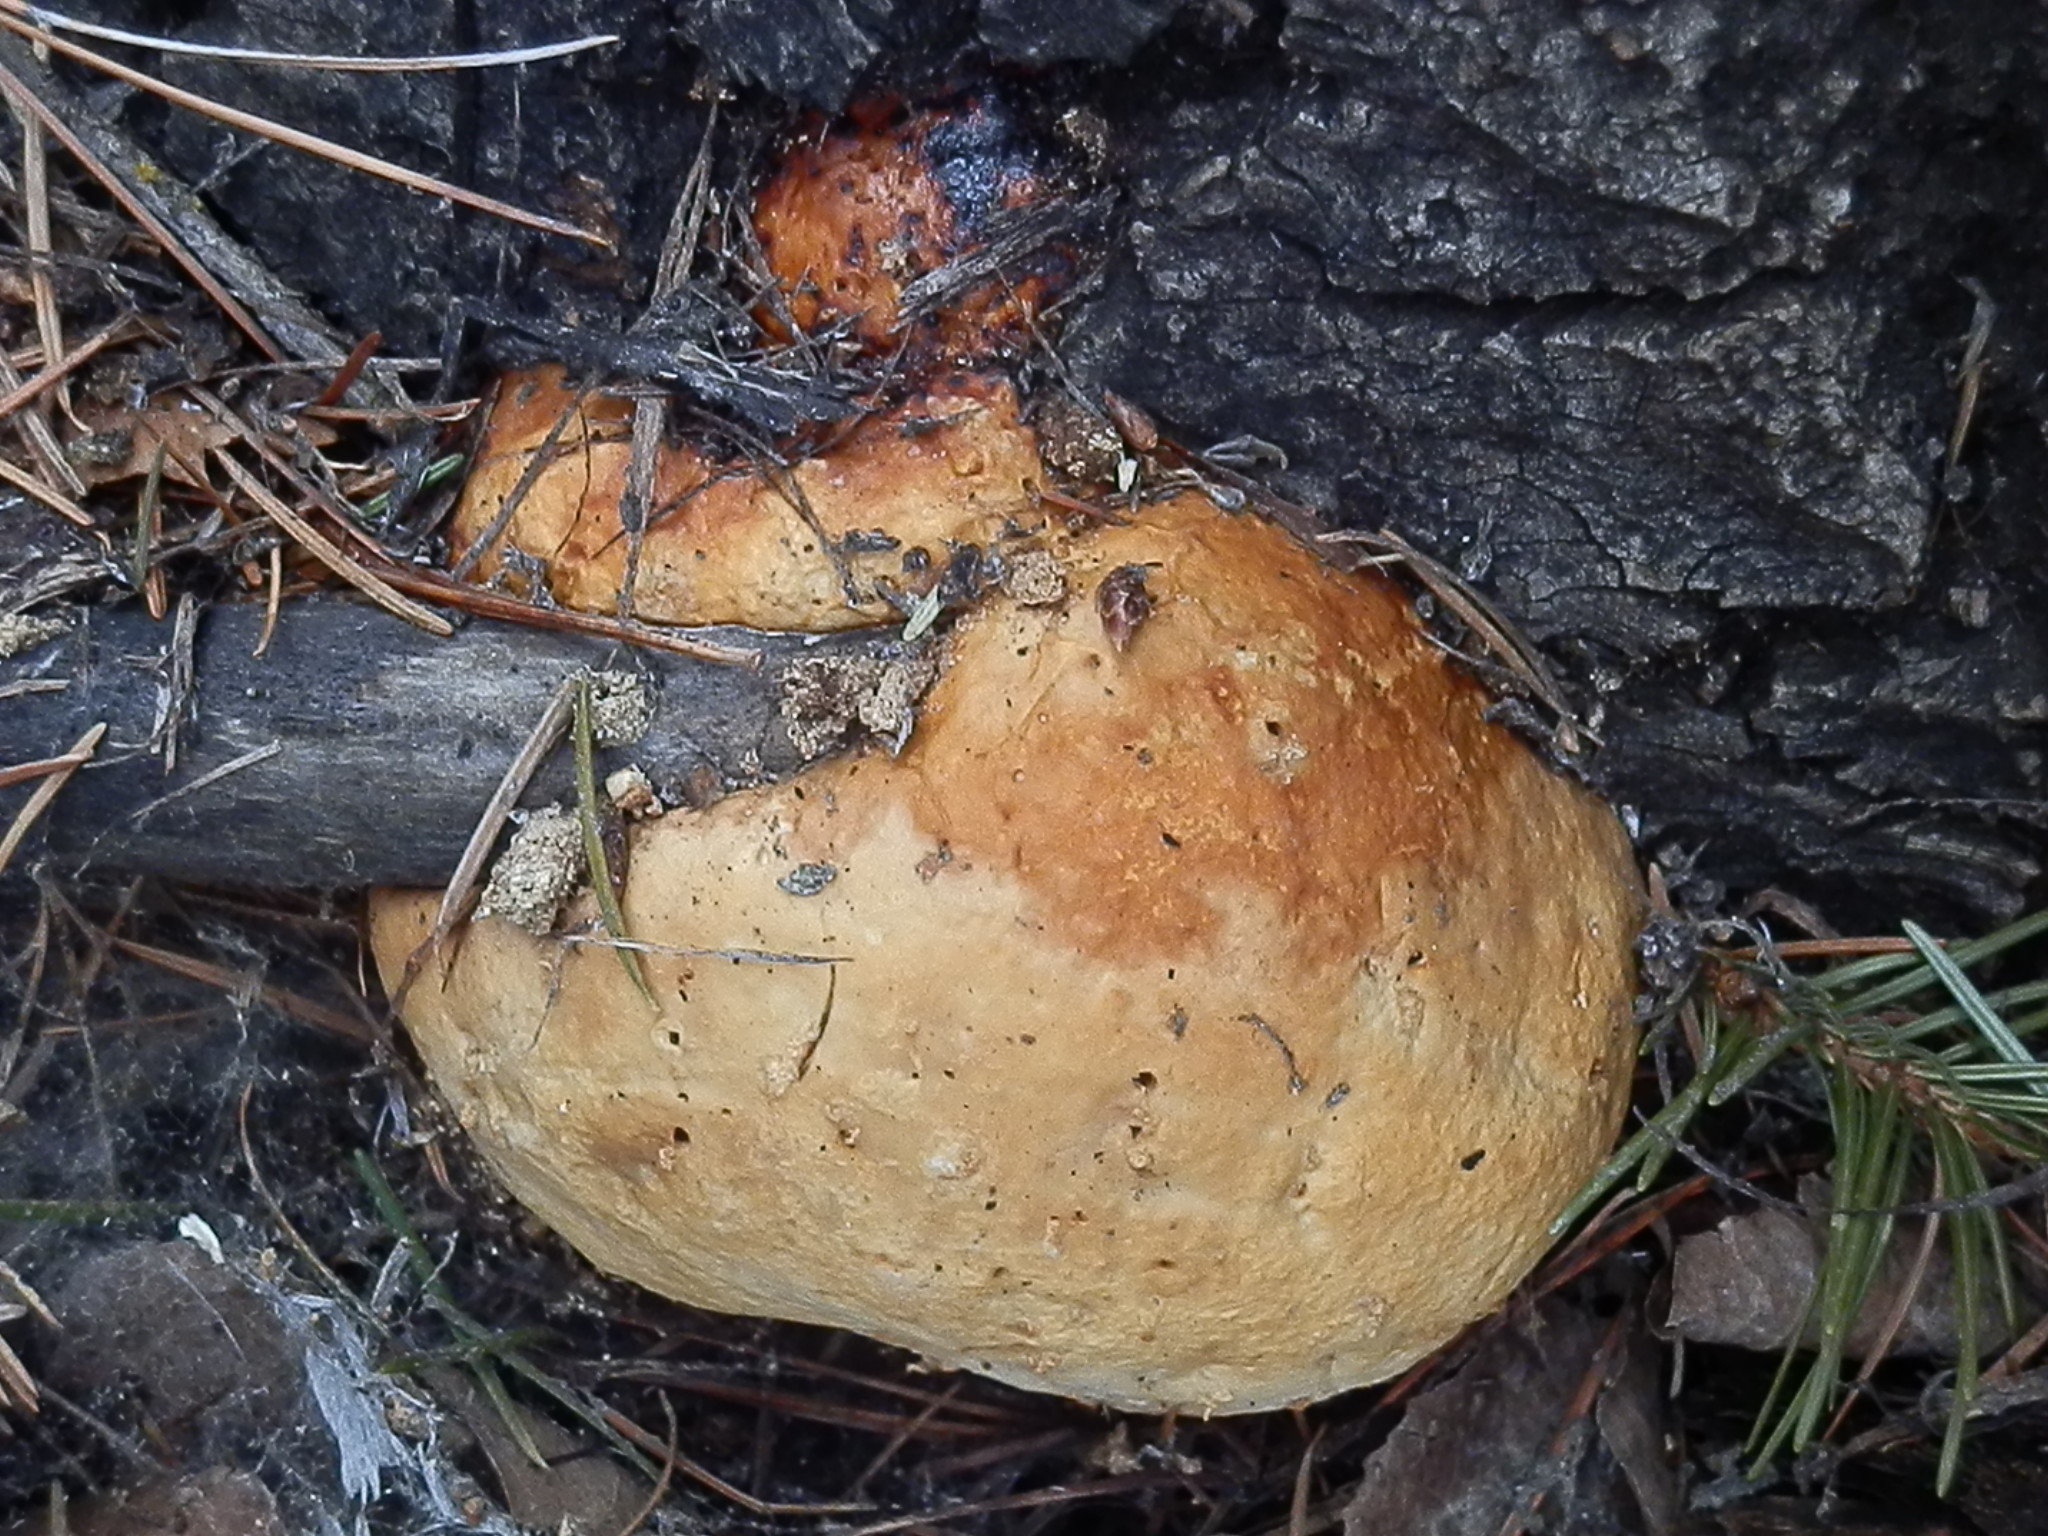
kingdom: Fungi
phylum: Basidiomycota
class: Agaricomycetes
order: Polyporales
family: Fomitopsidaceae
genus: Fomitopsis
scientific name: Fomitopsis schrenkii
